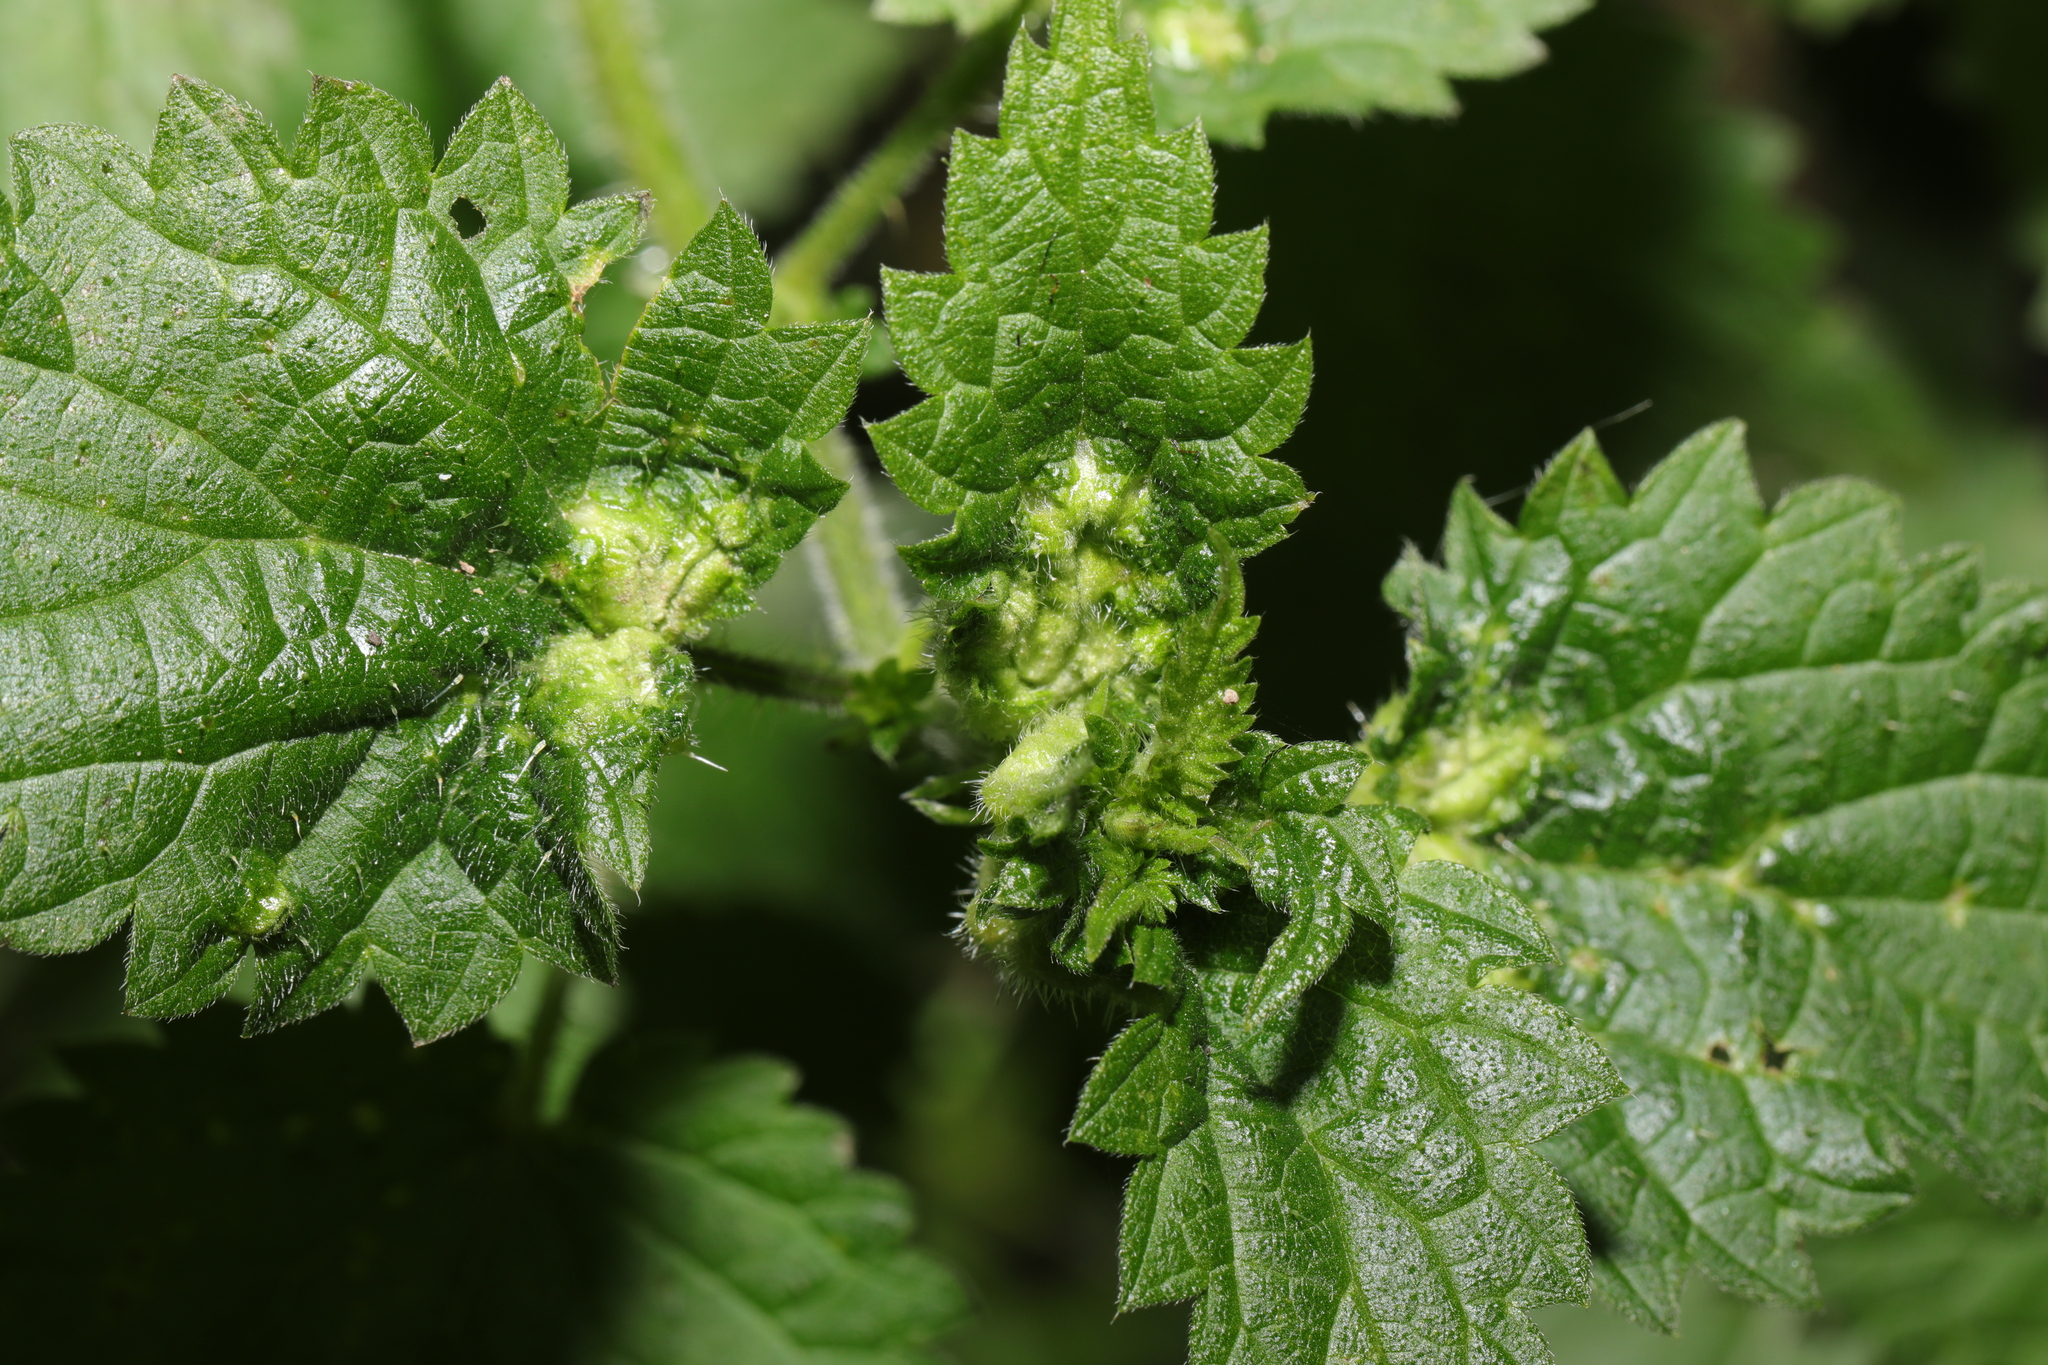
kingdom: Animalia
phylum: Arthropoda
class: Insecta
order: Diptera
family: Cecidomyiidae
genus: Dasineura
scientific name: Dasineura urticae
